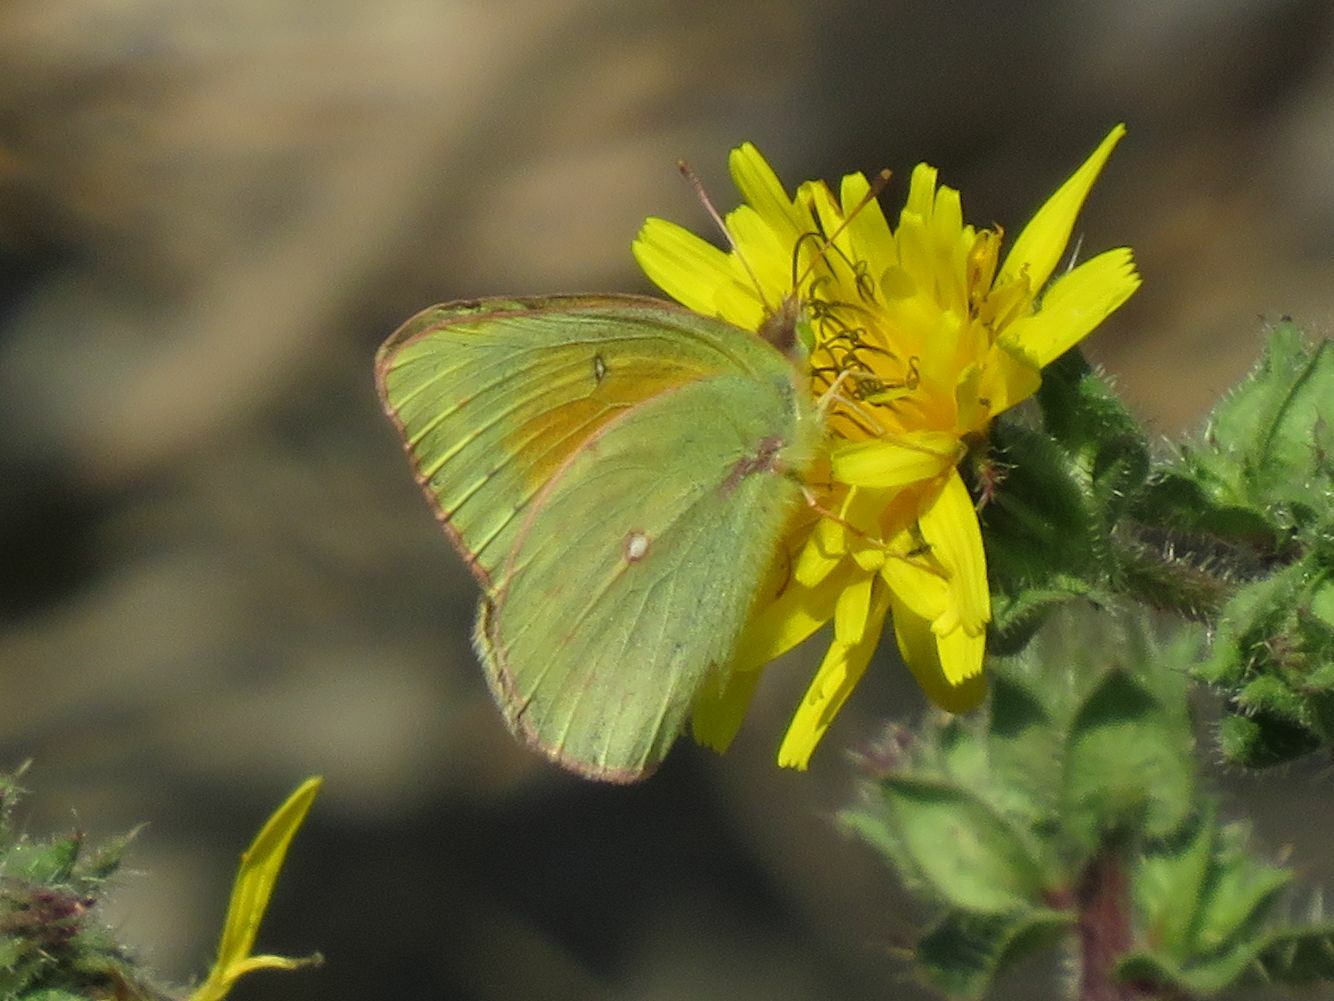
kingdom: Animalia
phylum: Arthropoda
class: Insecta
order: Lepidoptera
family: Pieridae
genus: Colias
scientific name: Colias lesbia
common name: Lesbia clouded yellow
